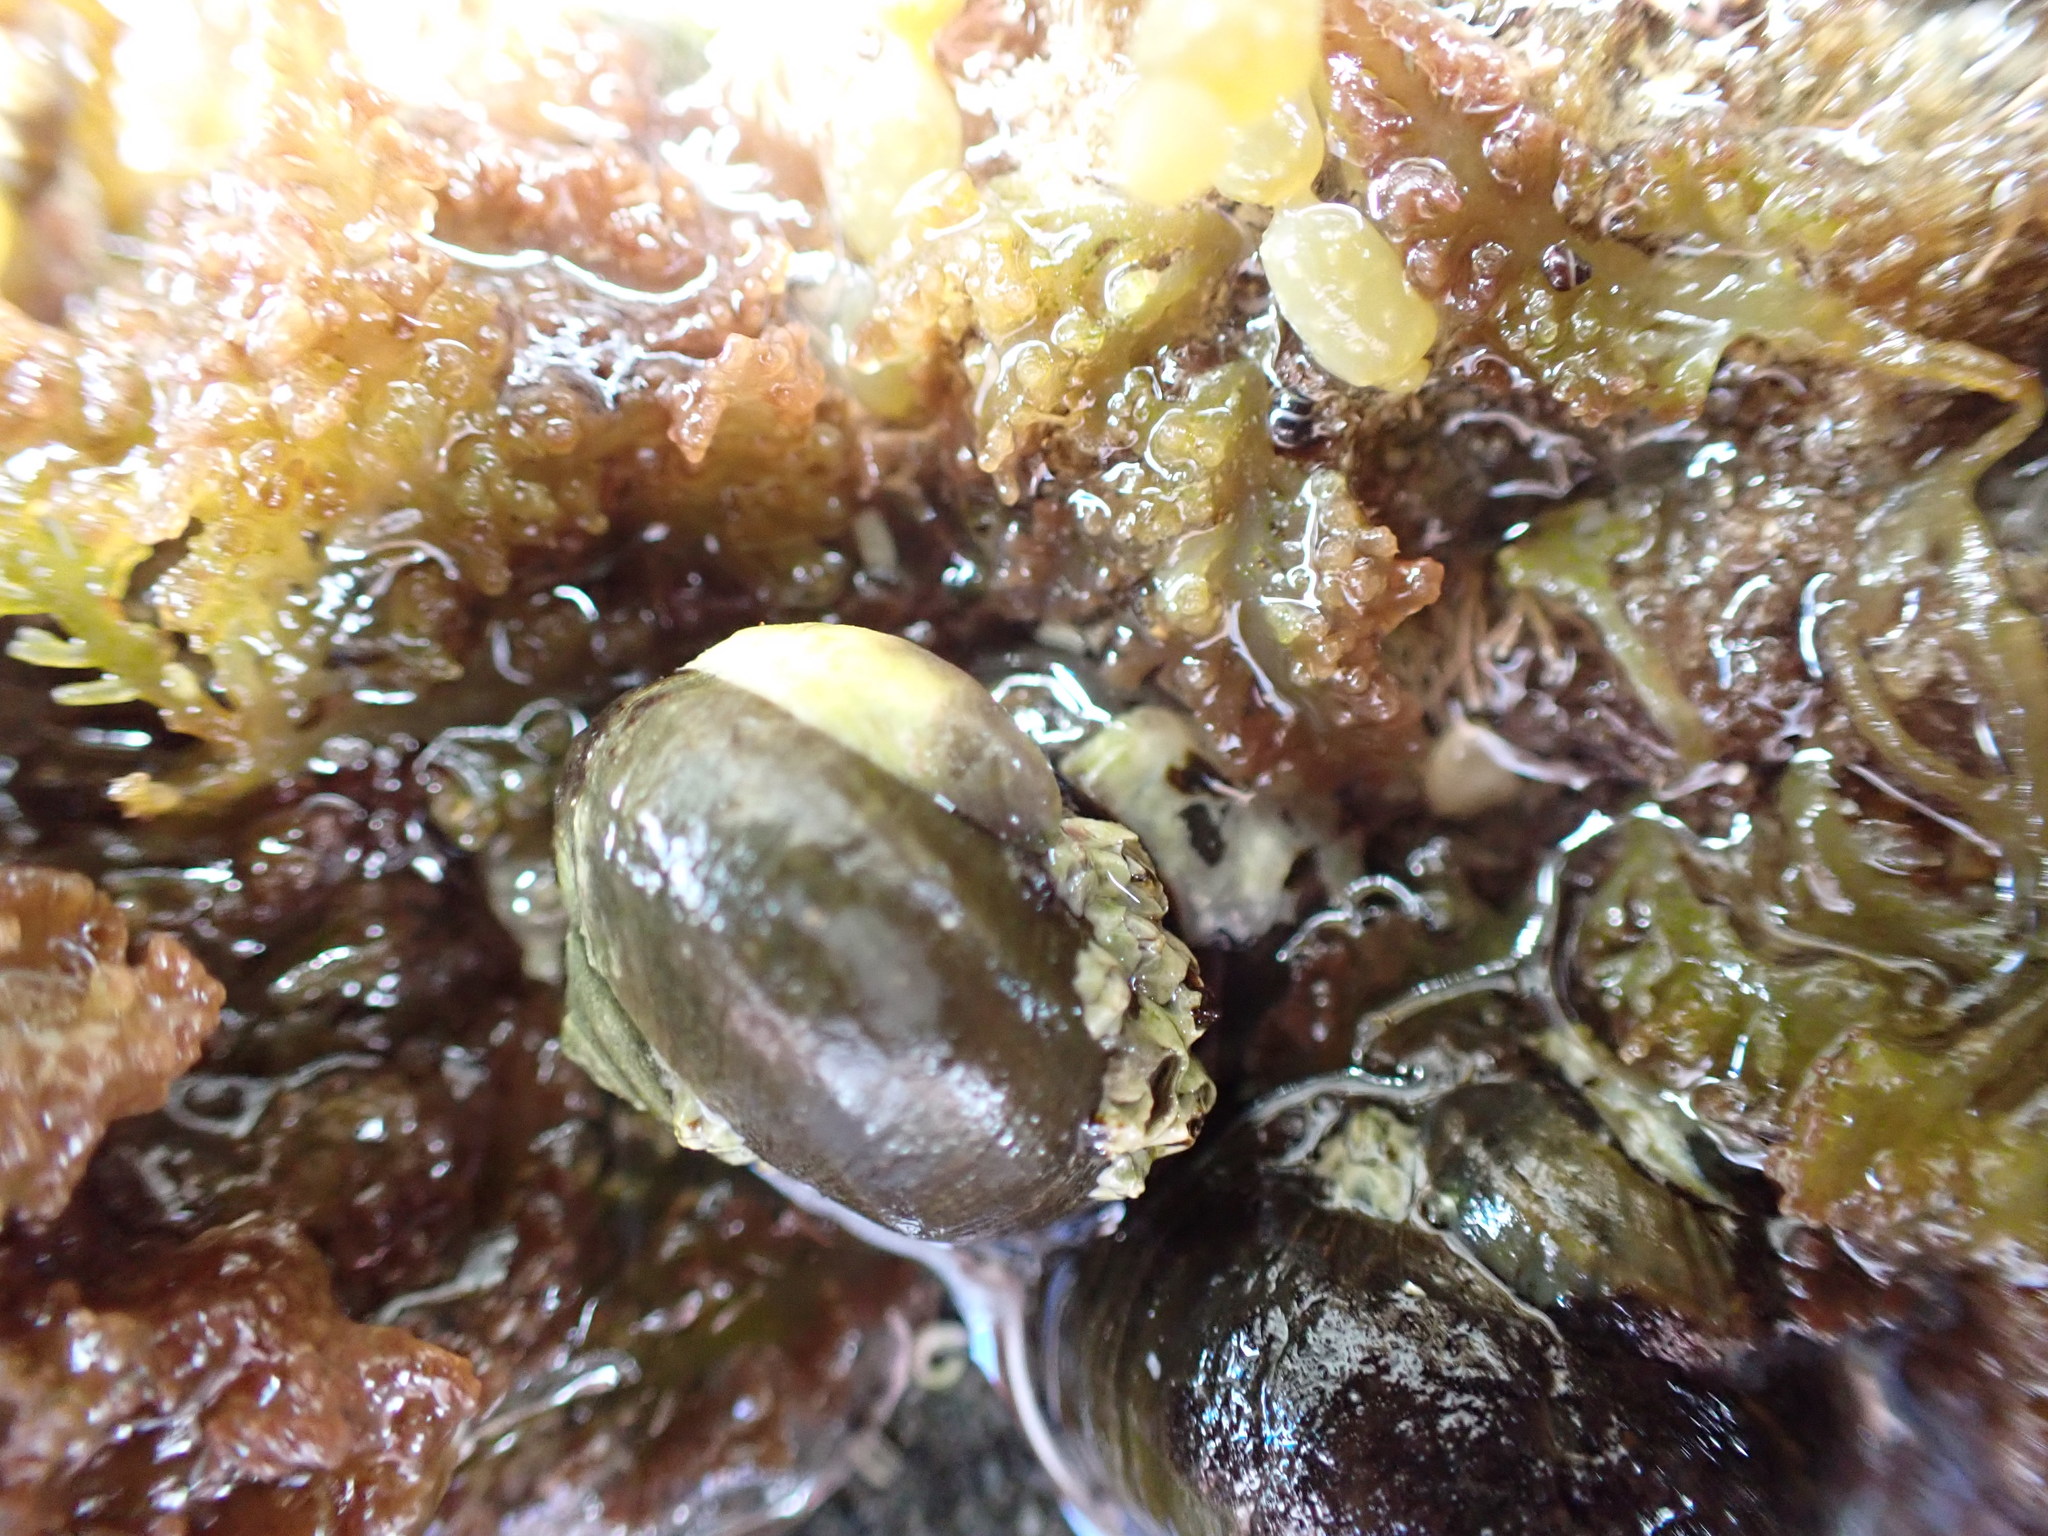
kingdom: Animalia
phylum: Mollusca
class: Gastropoda
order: Littorinimorpha
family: Calyptraeidae
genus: Maoricrypta
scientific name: Maoricrypta monoxyla
